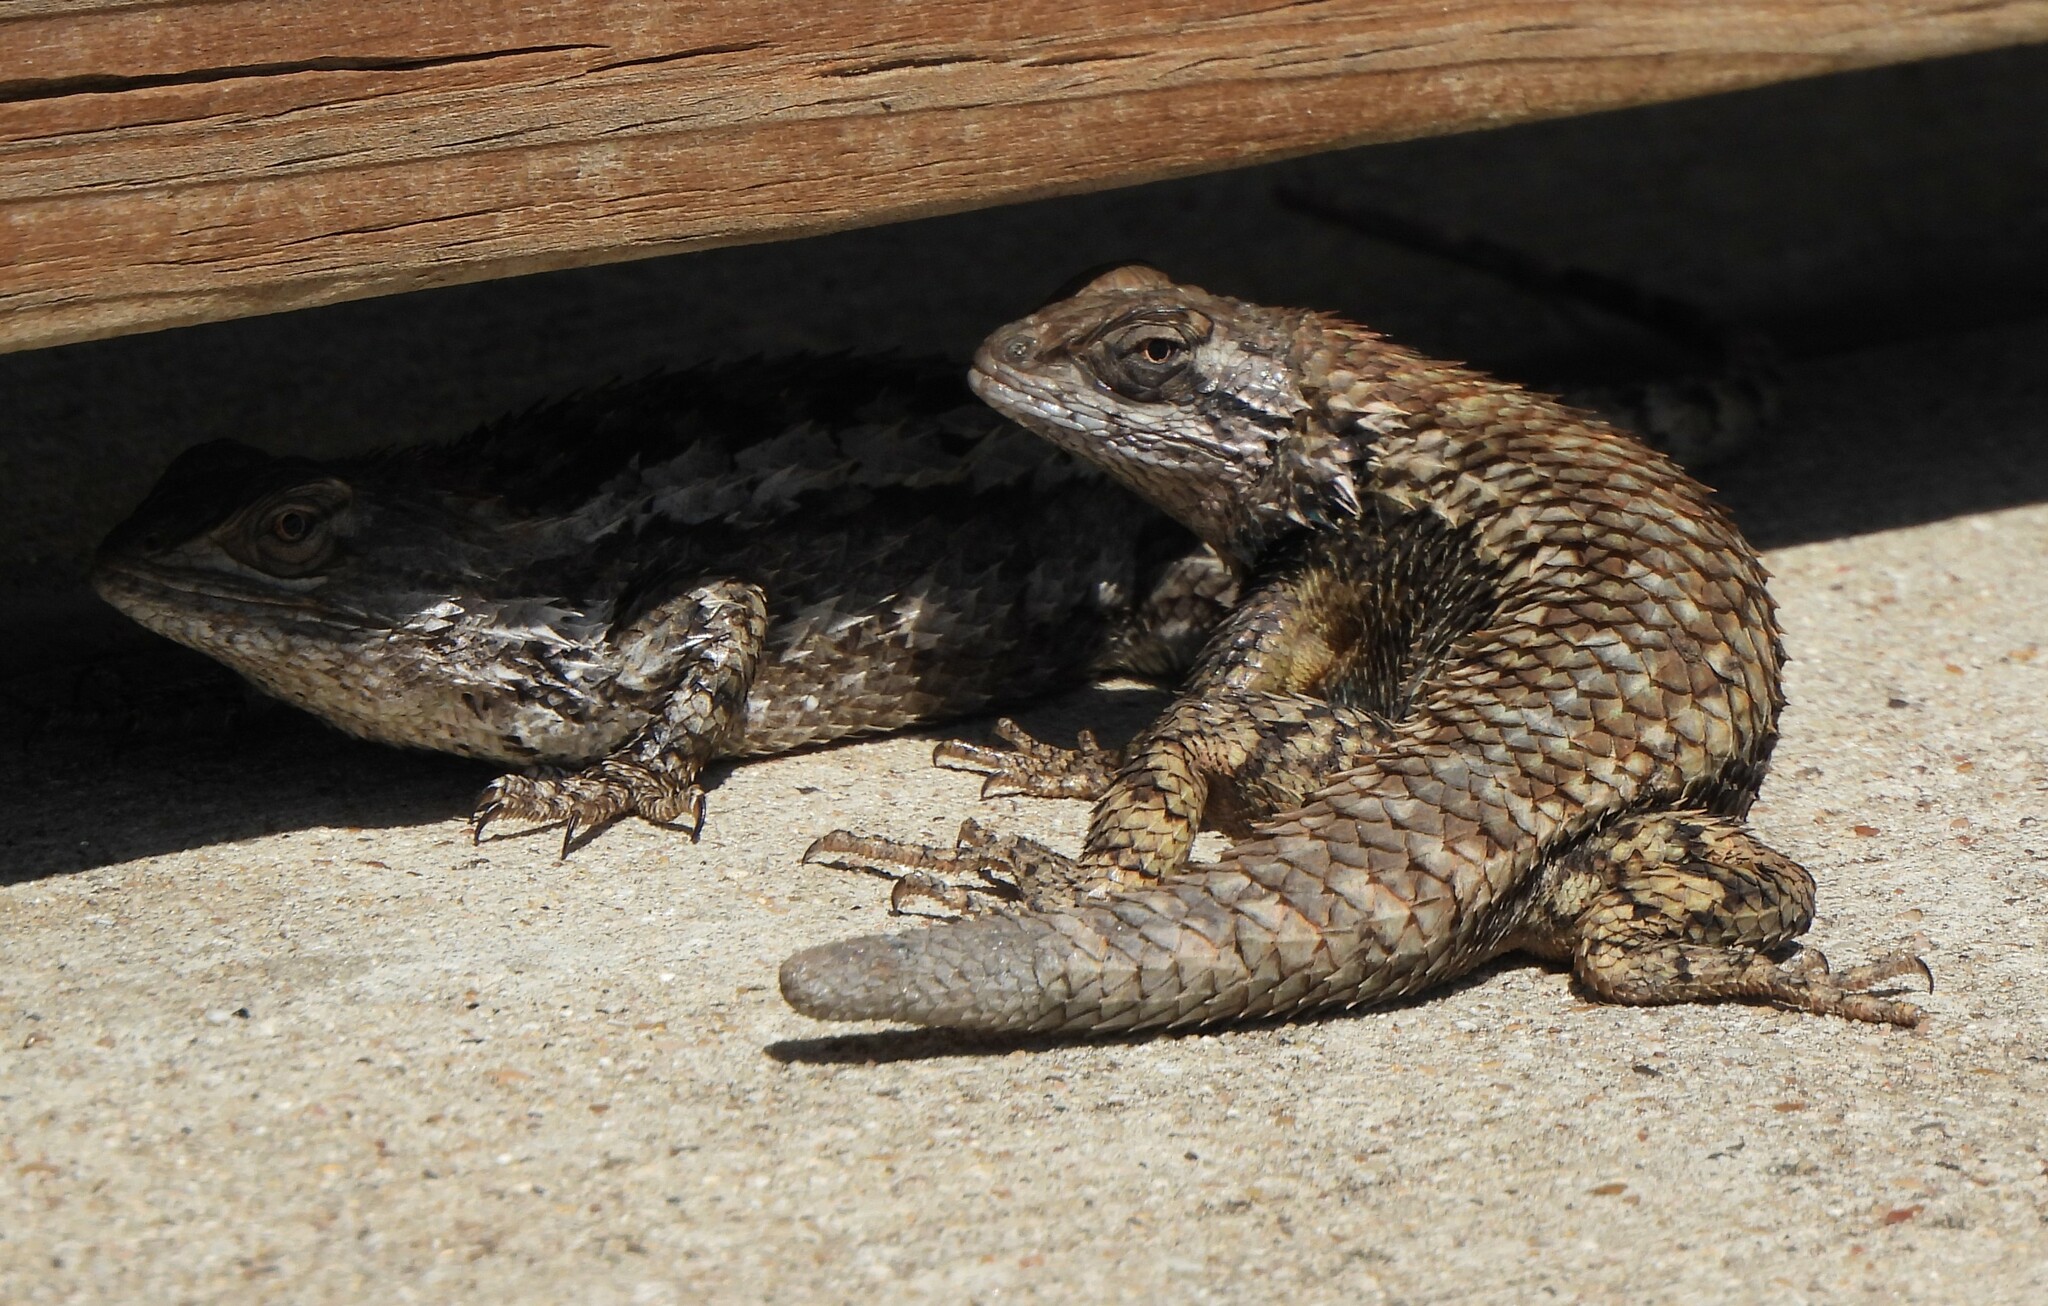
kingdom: Animalia
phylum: Chordata
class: Squamata
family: Phrynosomatidae
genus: Sceloporus
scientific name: Sceloporus olivaceus
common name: Texas spiny lizard
